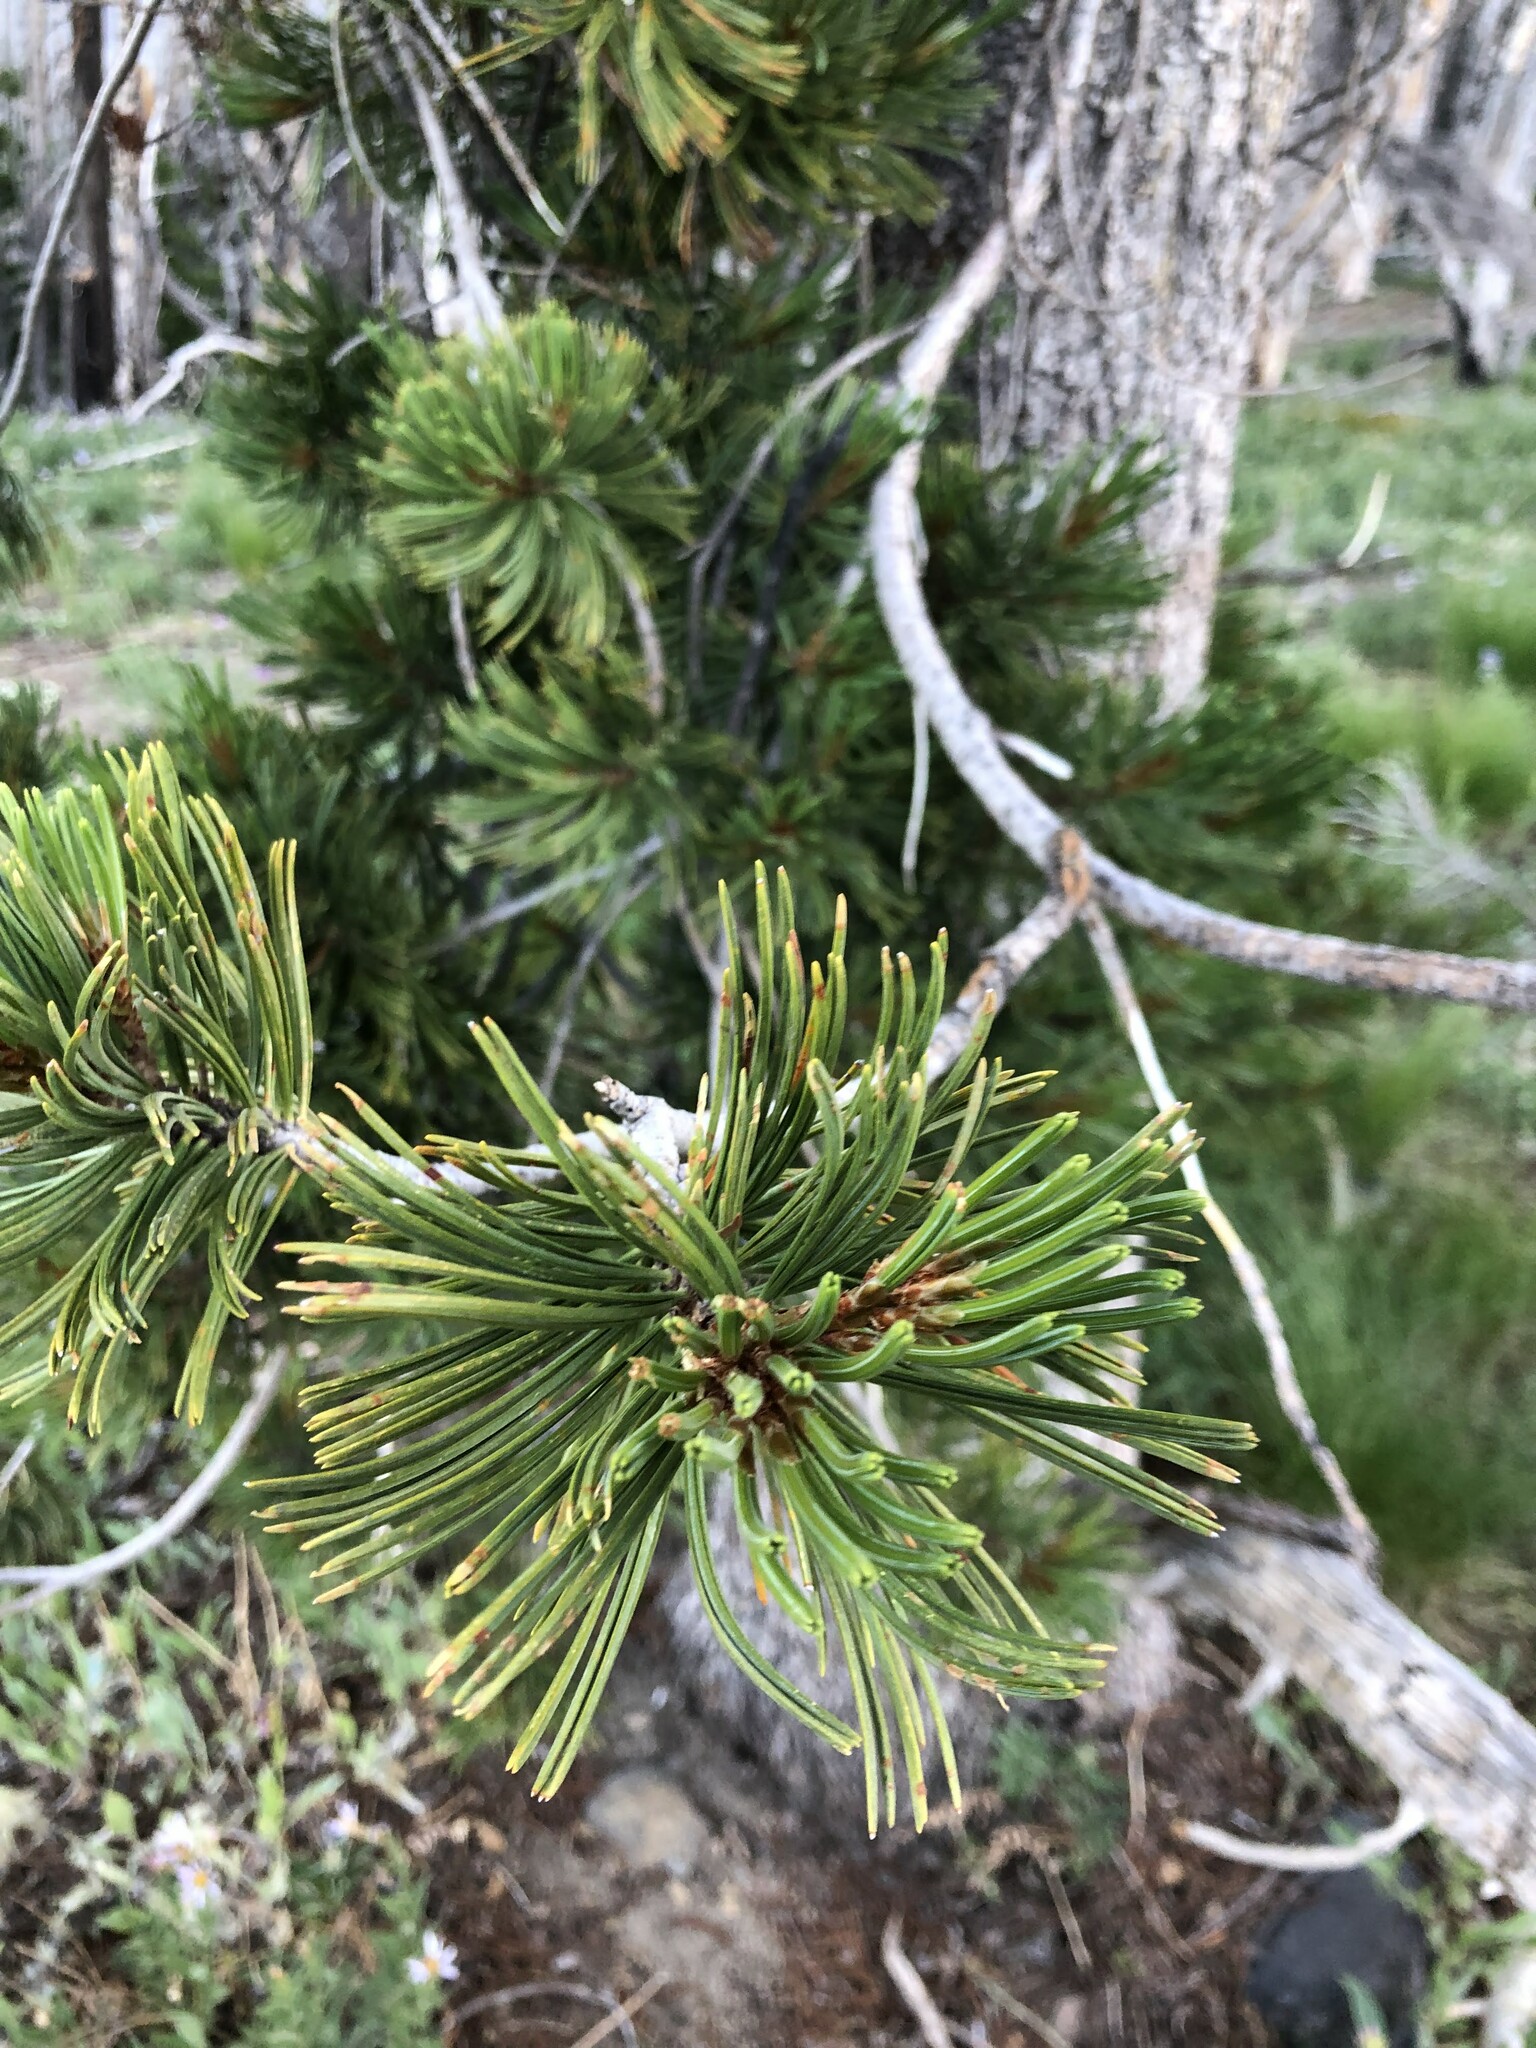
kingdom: Plantae
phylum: Tracheophyta
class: Pinopsida
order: Pinales
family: Pinaceae
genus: Pinus
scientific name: Pinus albicaulis
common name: Whitebark pine
